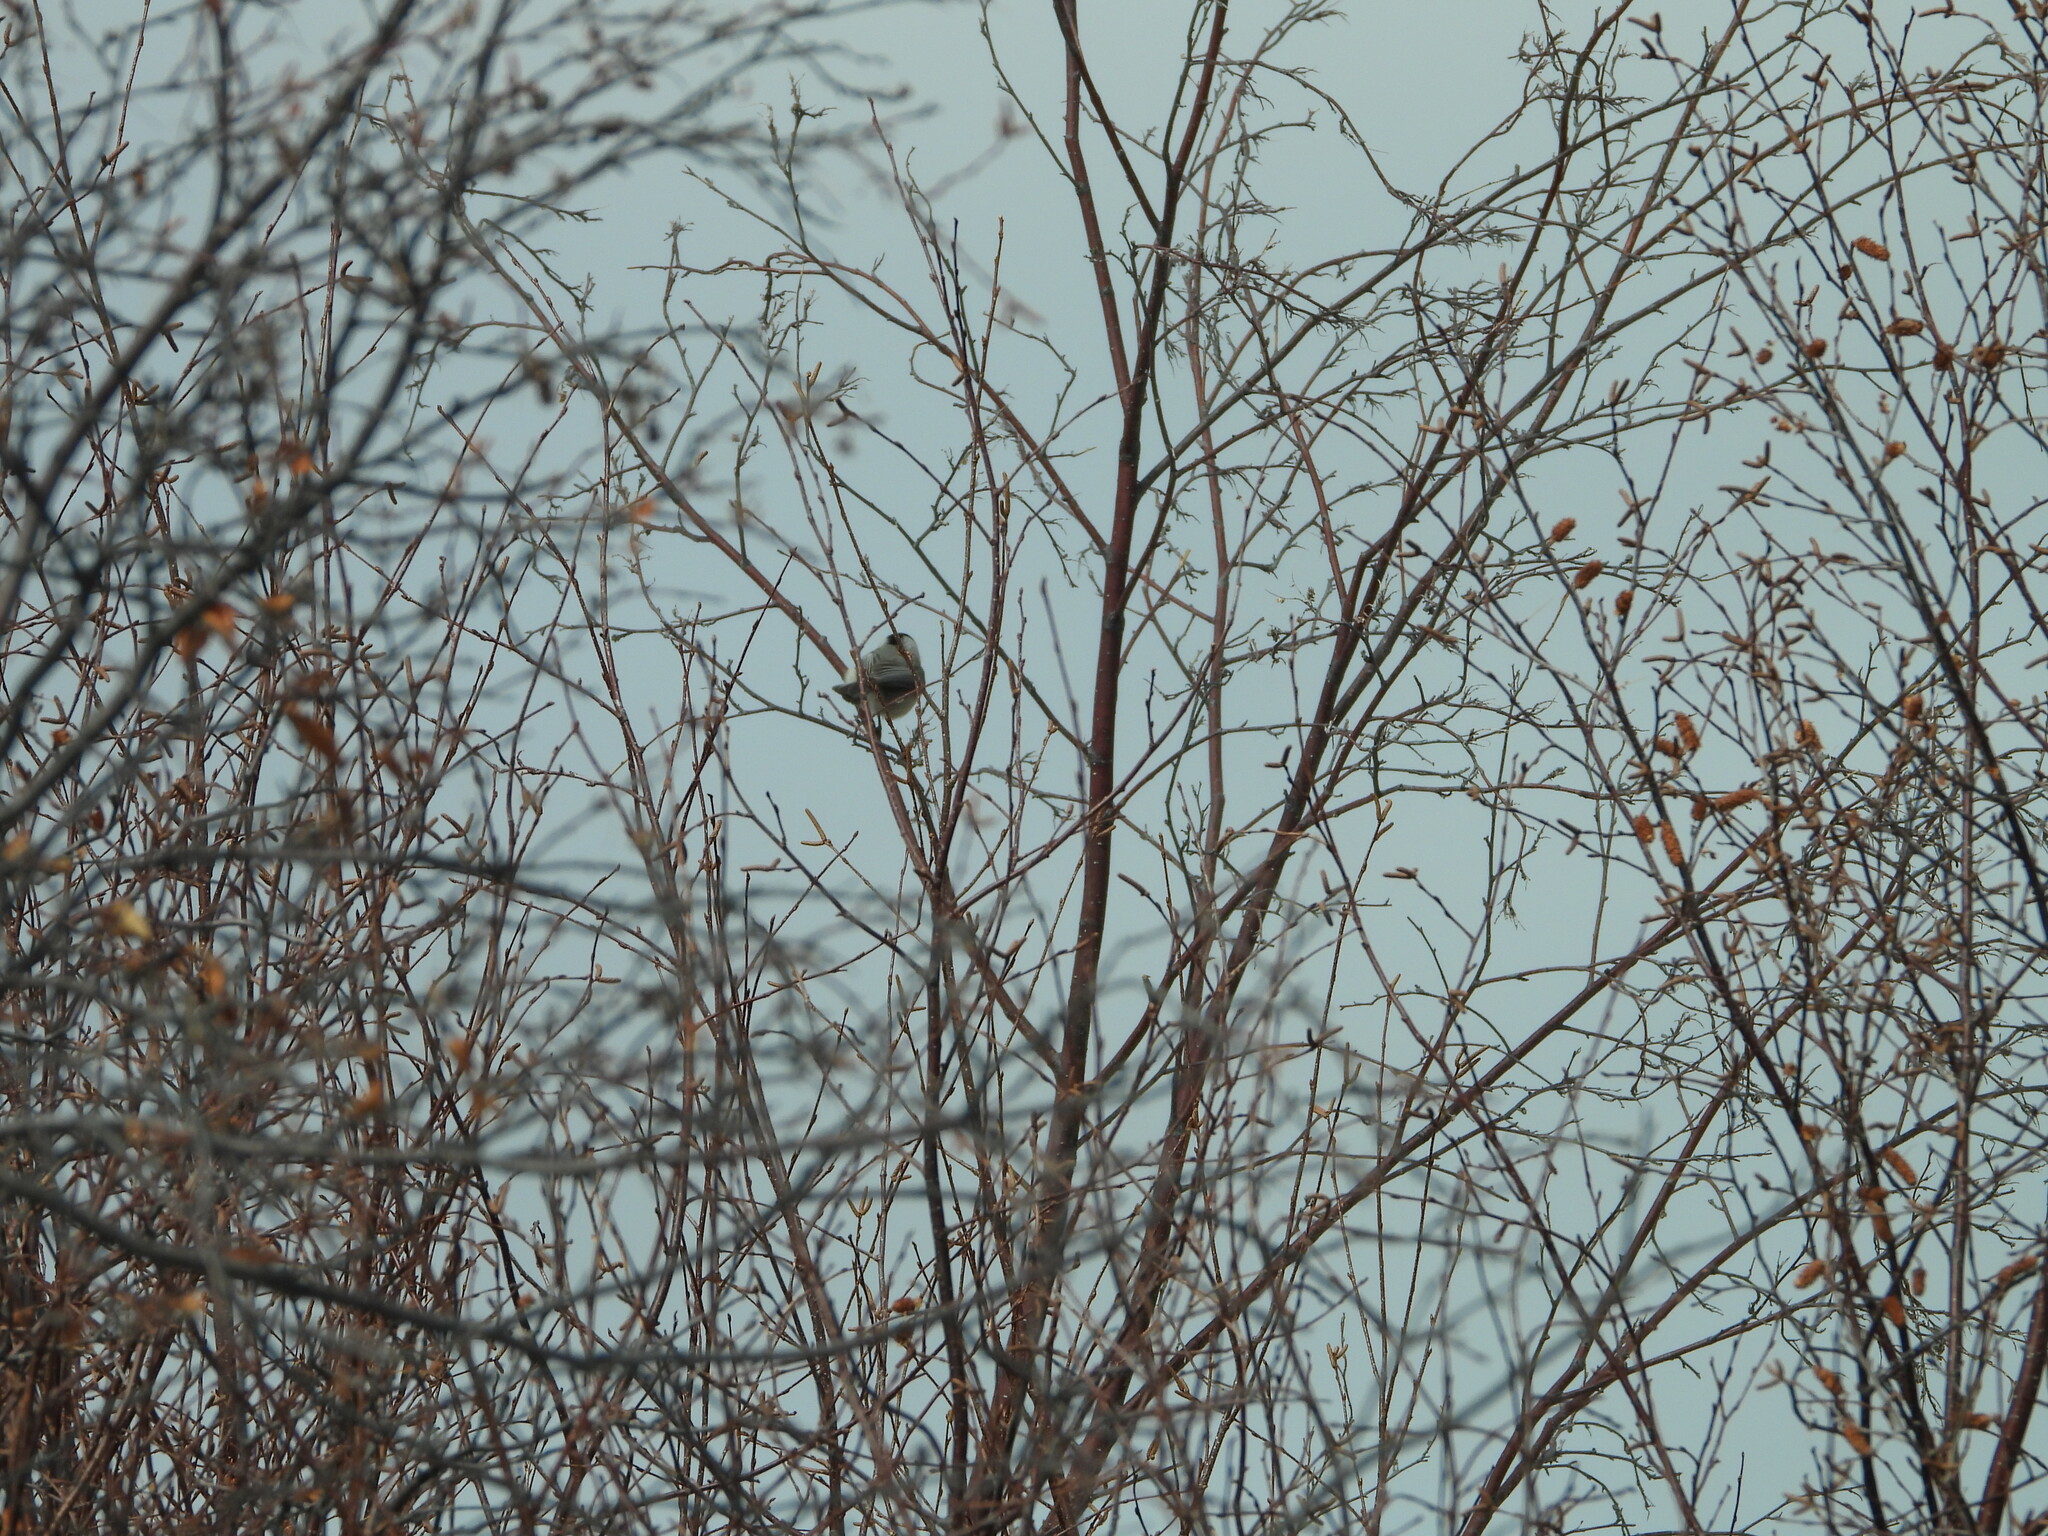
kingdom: Animalia
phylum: Chordata
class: Aves
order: Passeriformes
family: Paridae
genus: Poecile
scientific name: Poecile gambeli
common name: Mountain chickadee
